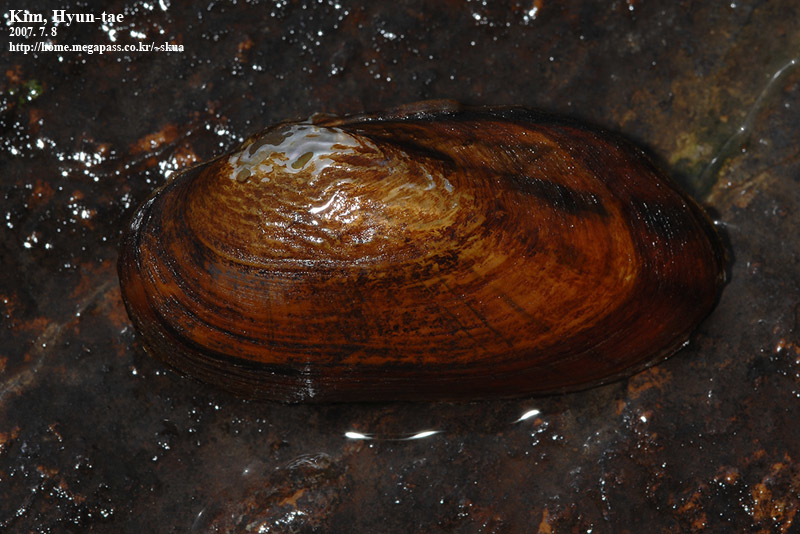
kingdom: Animalia
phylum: Mollusca
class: Bivalvia
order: Unionida
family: Unionidae
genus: Nodularia
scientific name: Nodularia douglasiae
